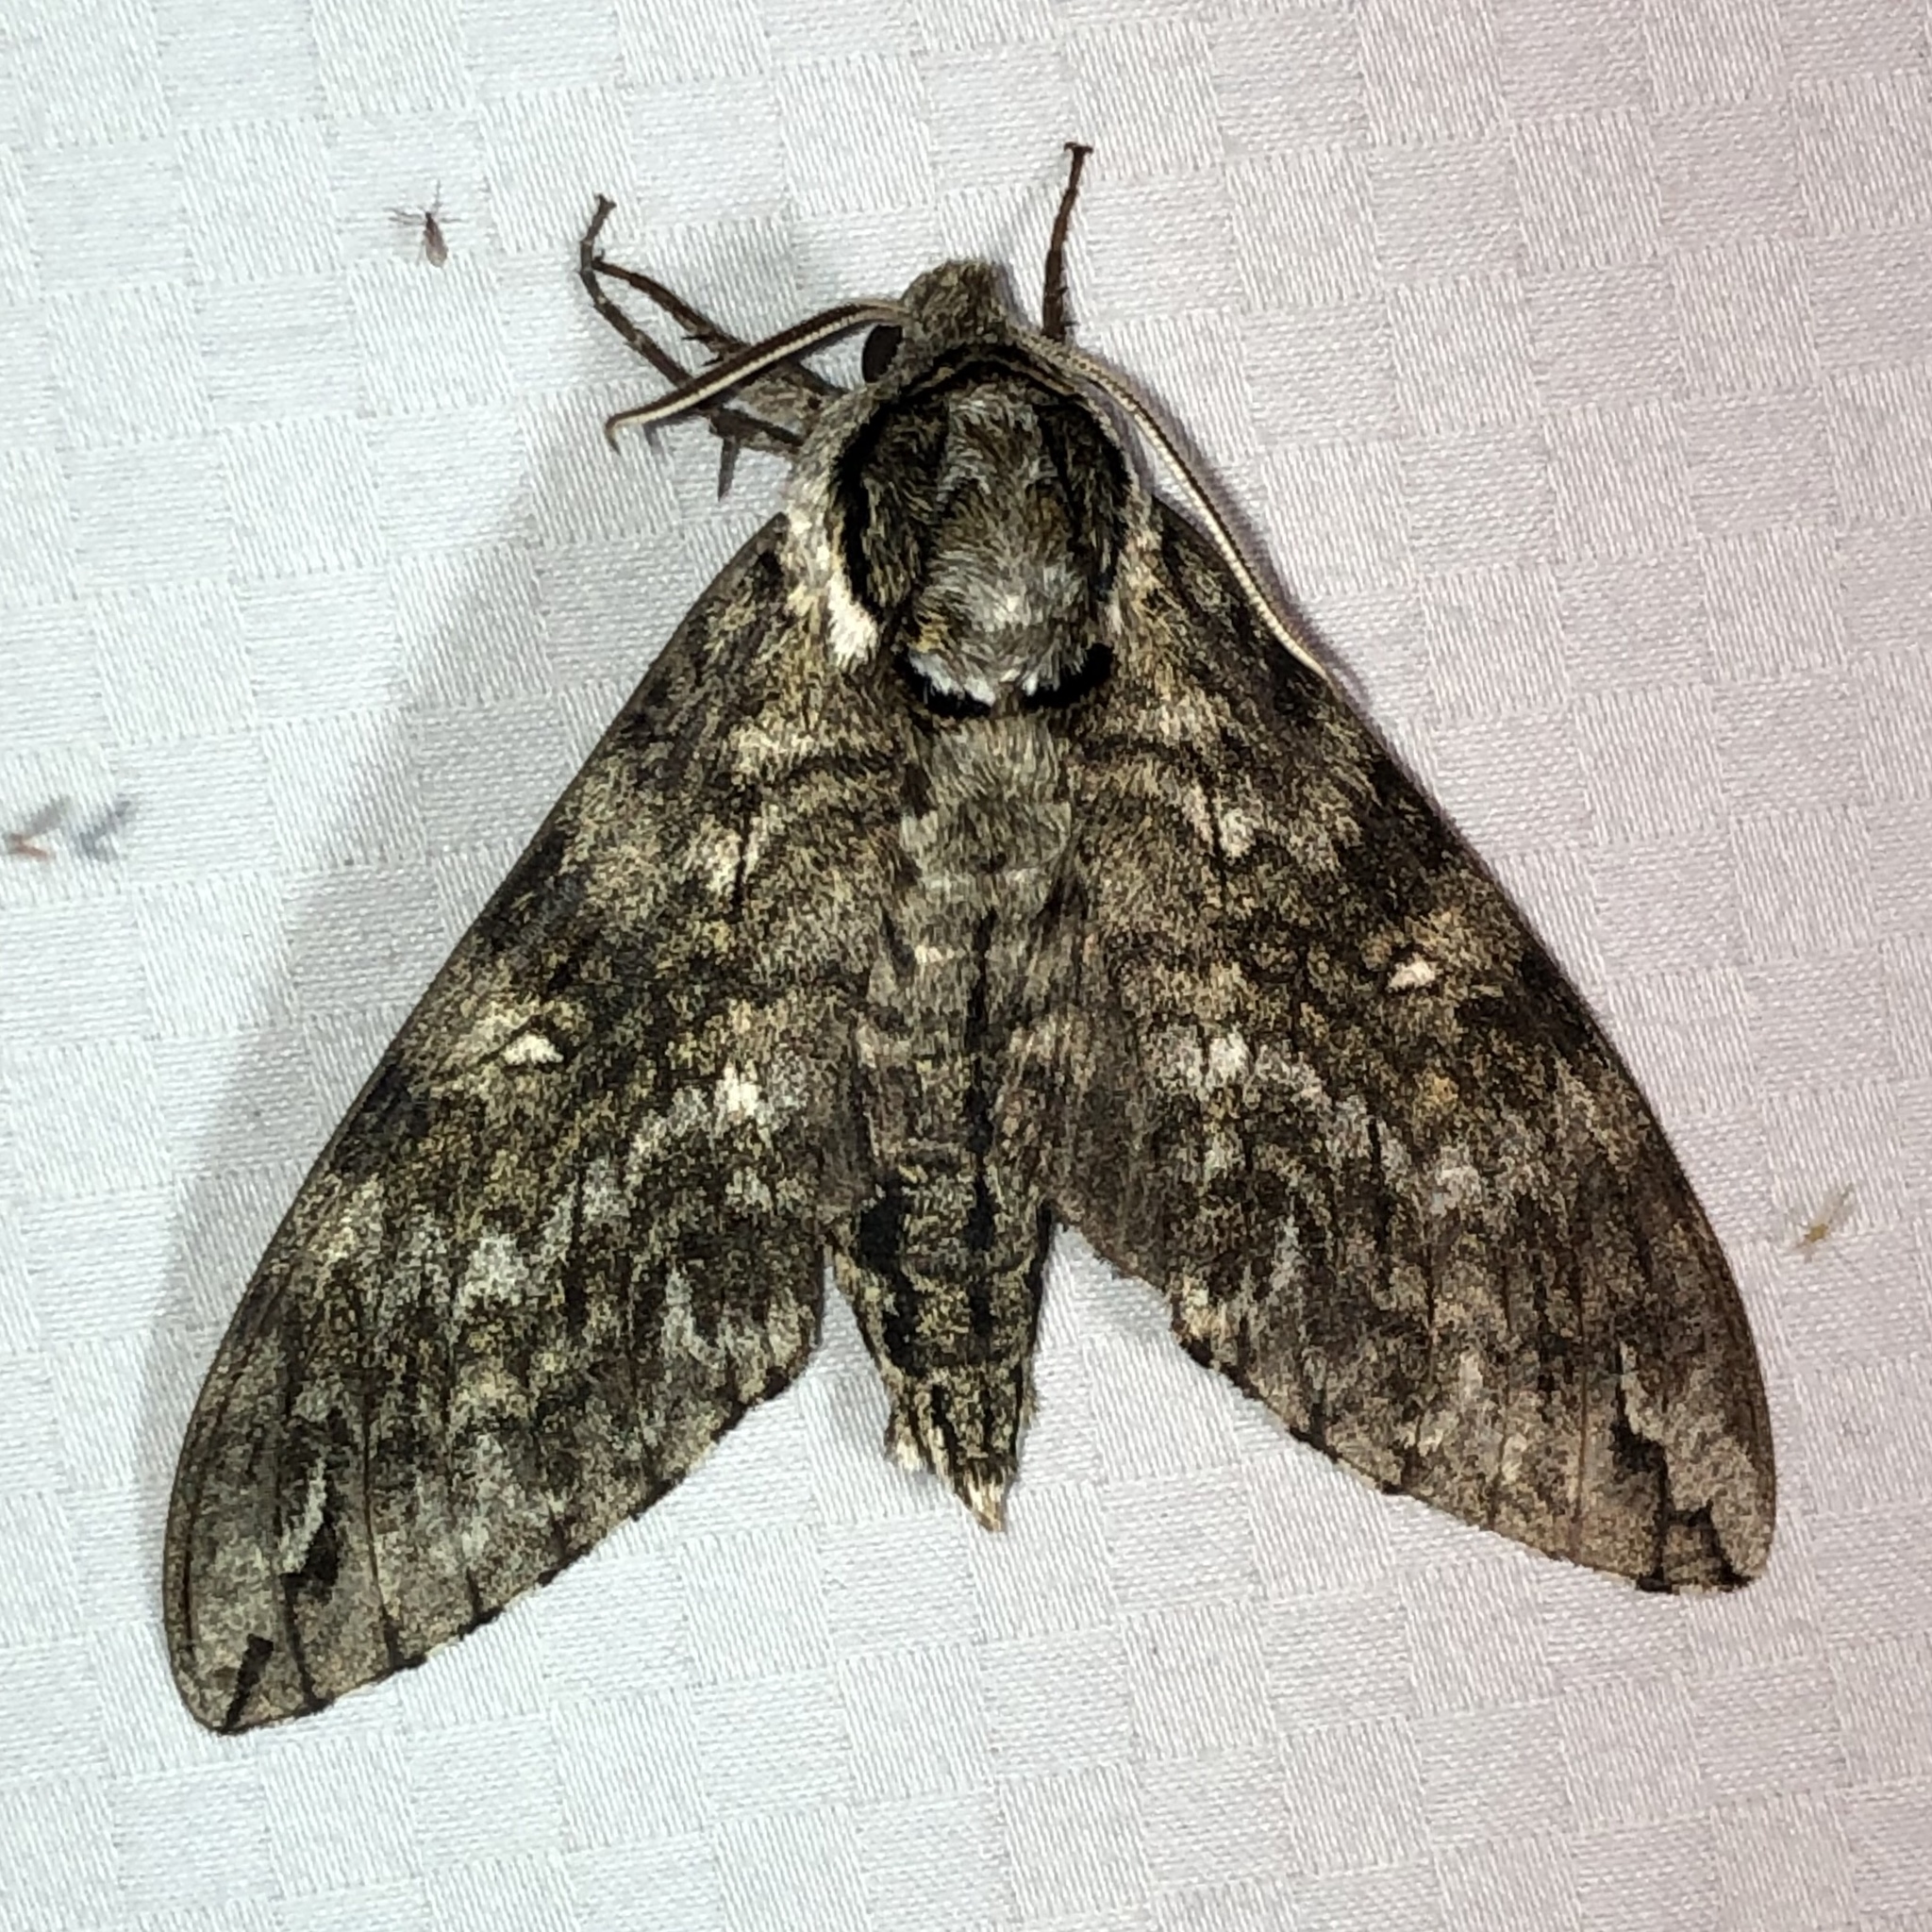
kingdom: Animalia
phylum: Arthropoda
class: Insecta
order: Lepidoptera
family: Sphingidae
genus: Ceratomia
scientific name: Ceratomia undulosa
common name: Waved sphinx
